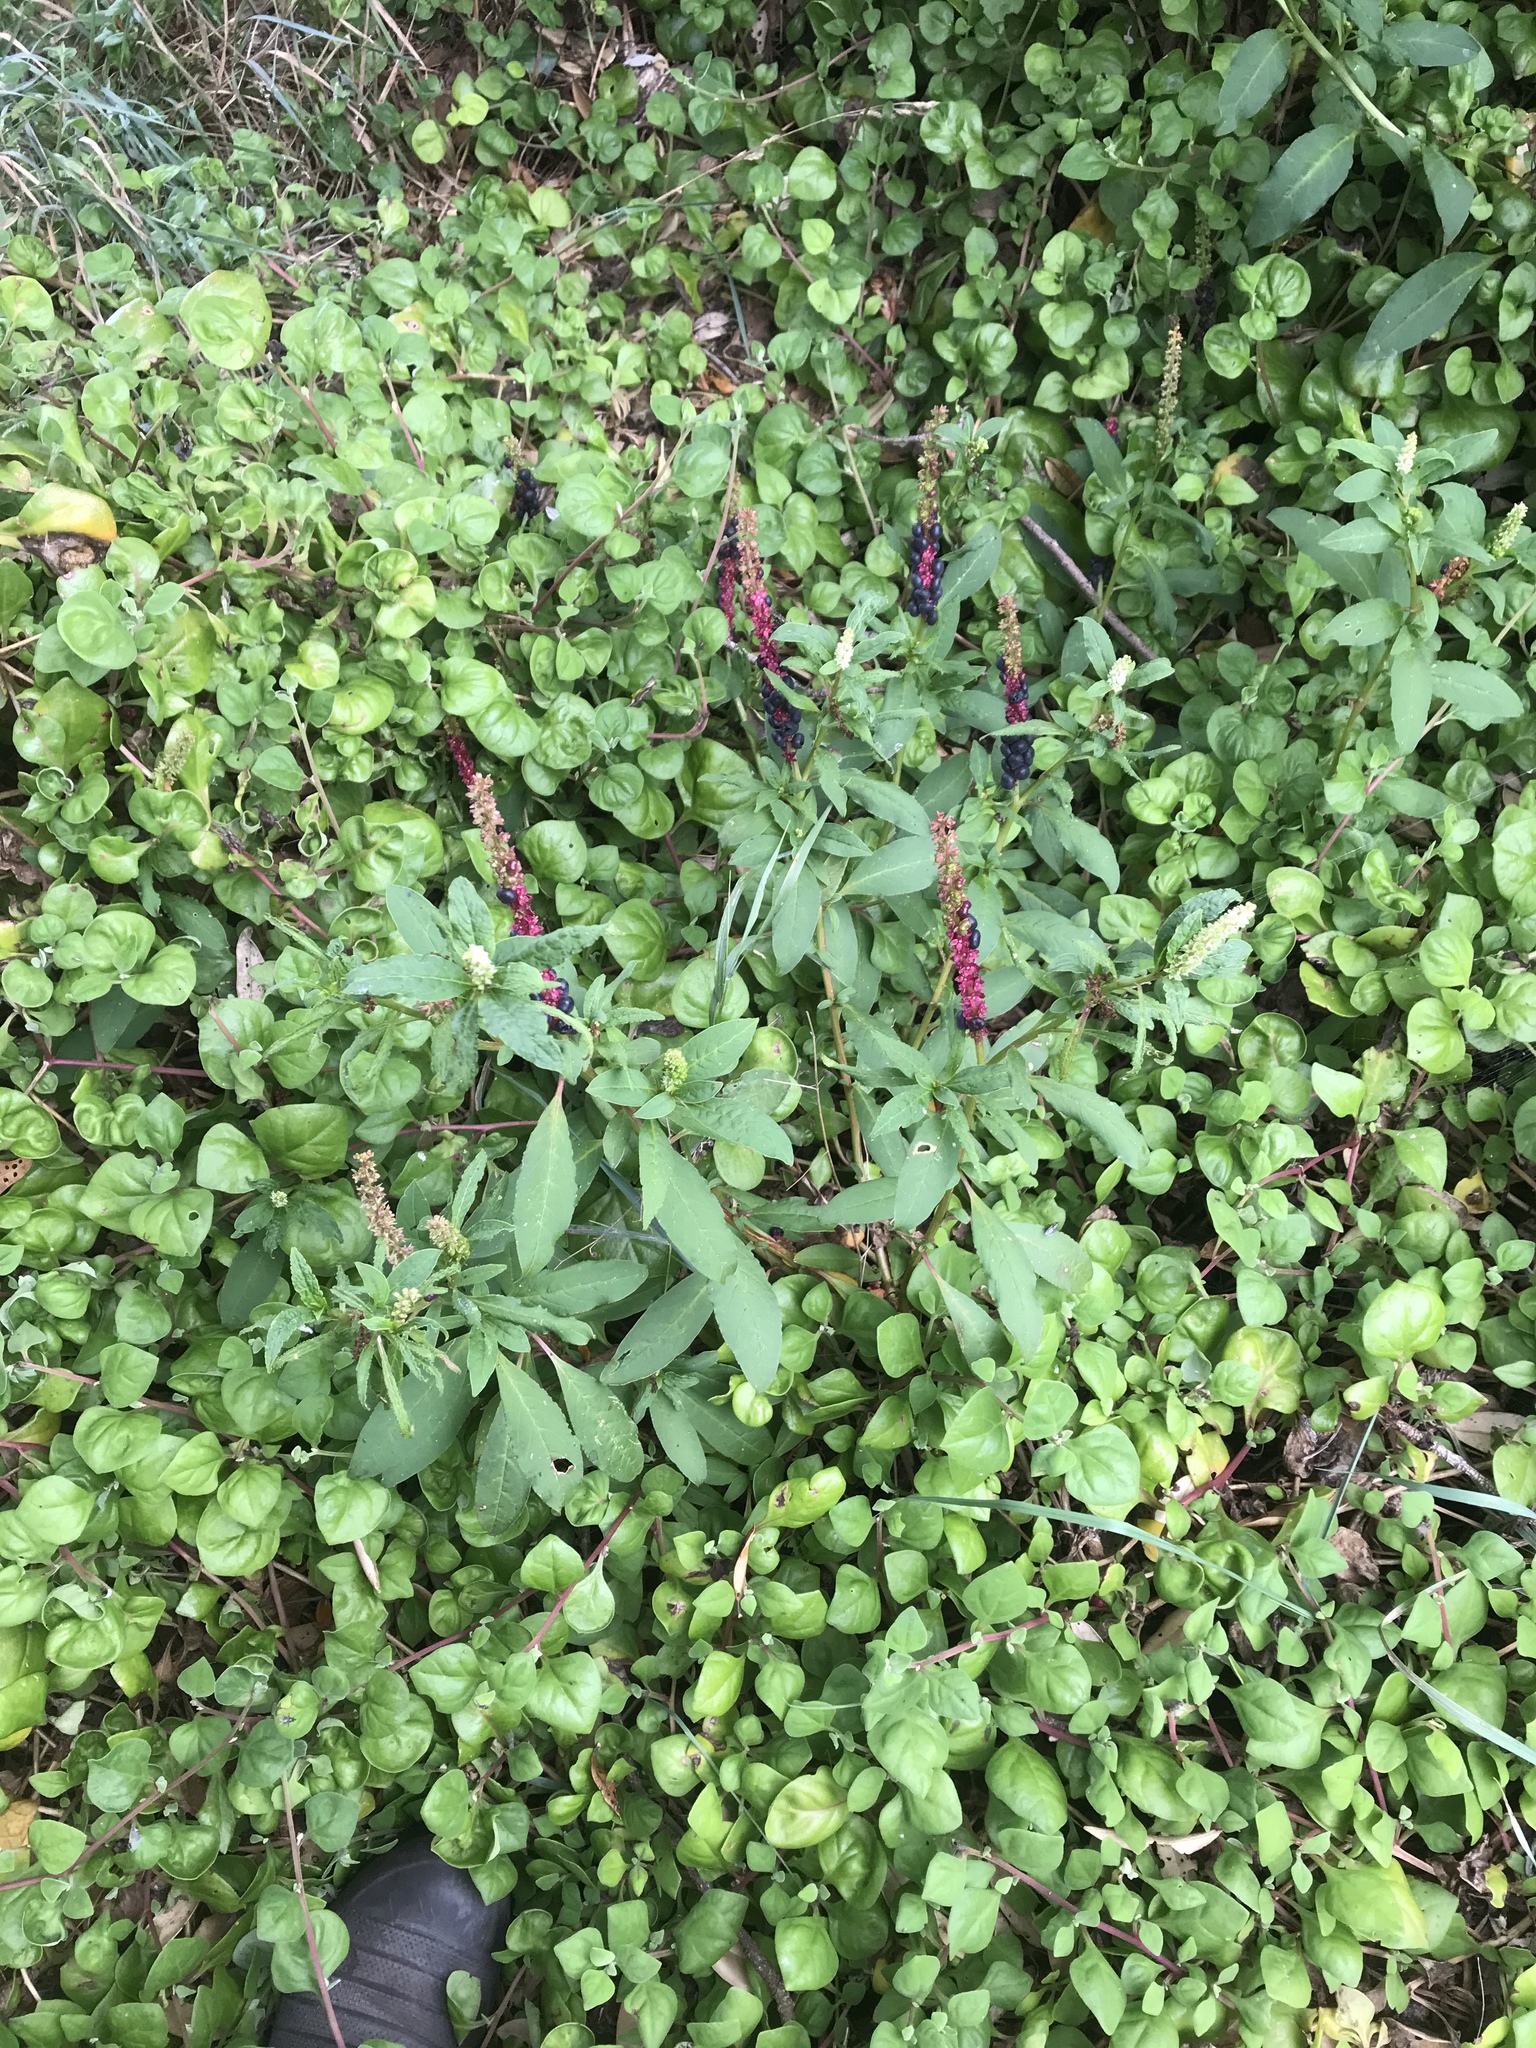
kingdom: Plantae
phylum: Tracheophyta
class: Magnoliopsida
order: Caryophyllales
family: Phytolaccaceae
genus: Phytolacca
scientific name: Phytolacca icosandra
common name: Button pokeweed
